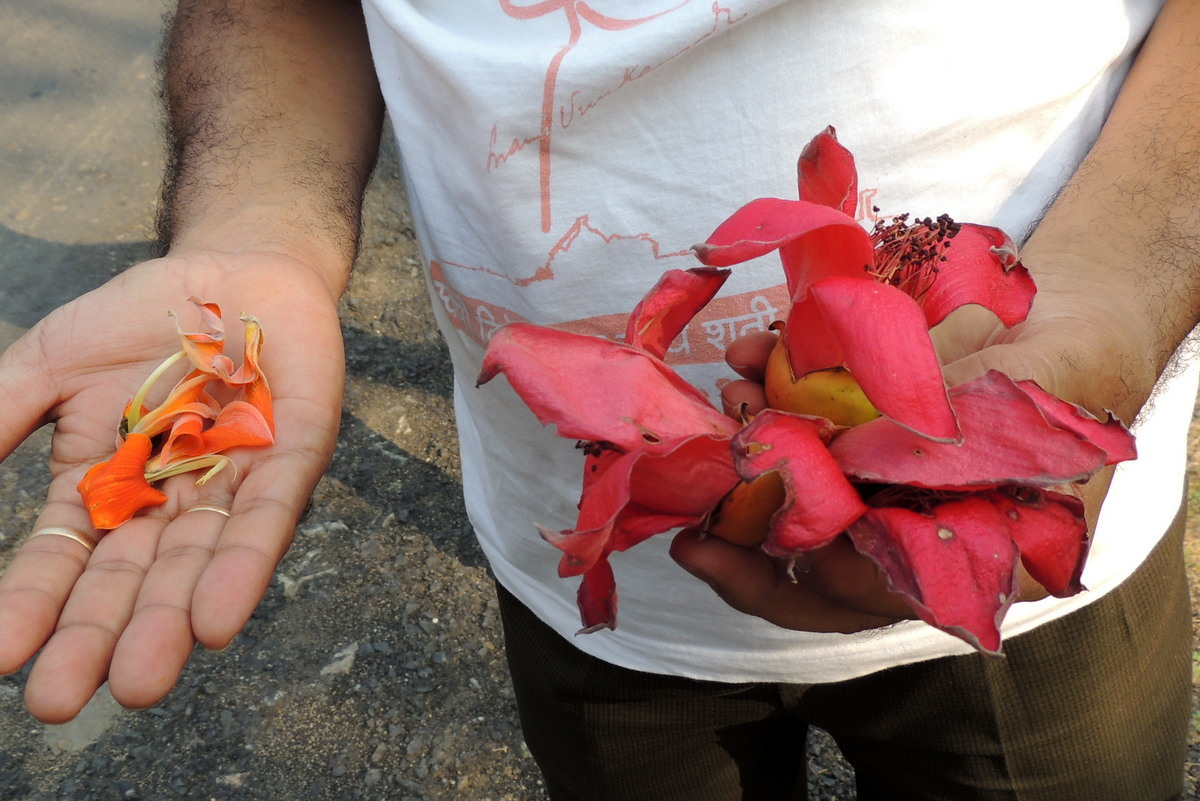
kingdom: Plantae
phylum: Tracheophyta
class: Magnoliopsida
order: Malvales
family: Malvaceae
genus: Bombax
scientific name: Bombax ceiba
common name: Northern-cottonwood
